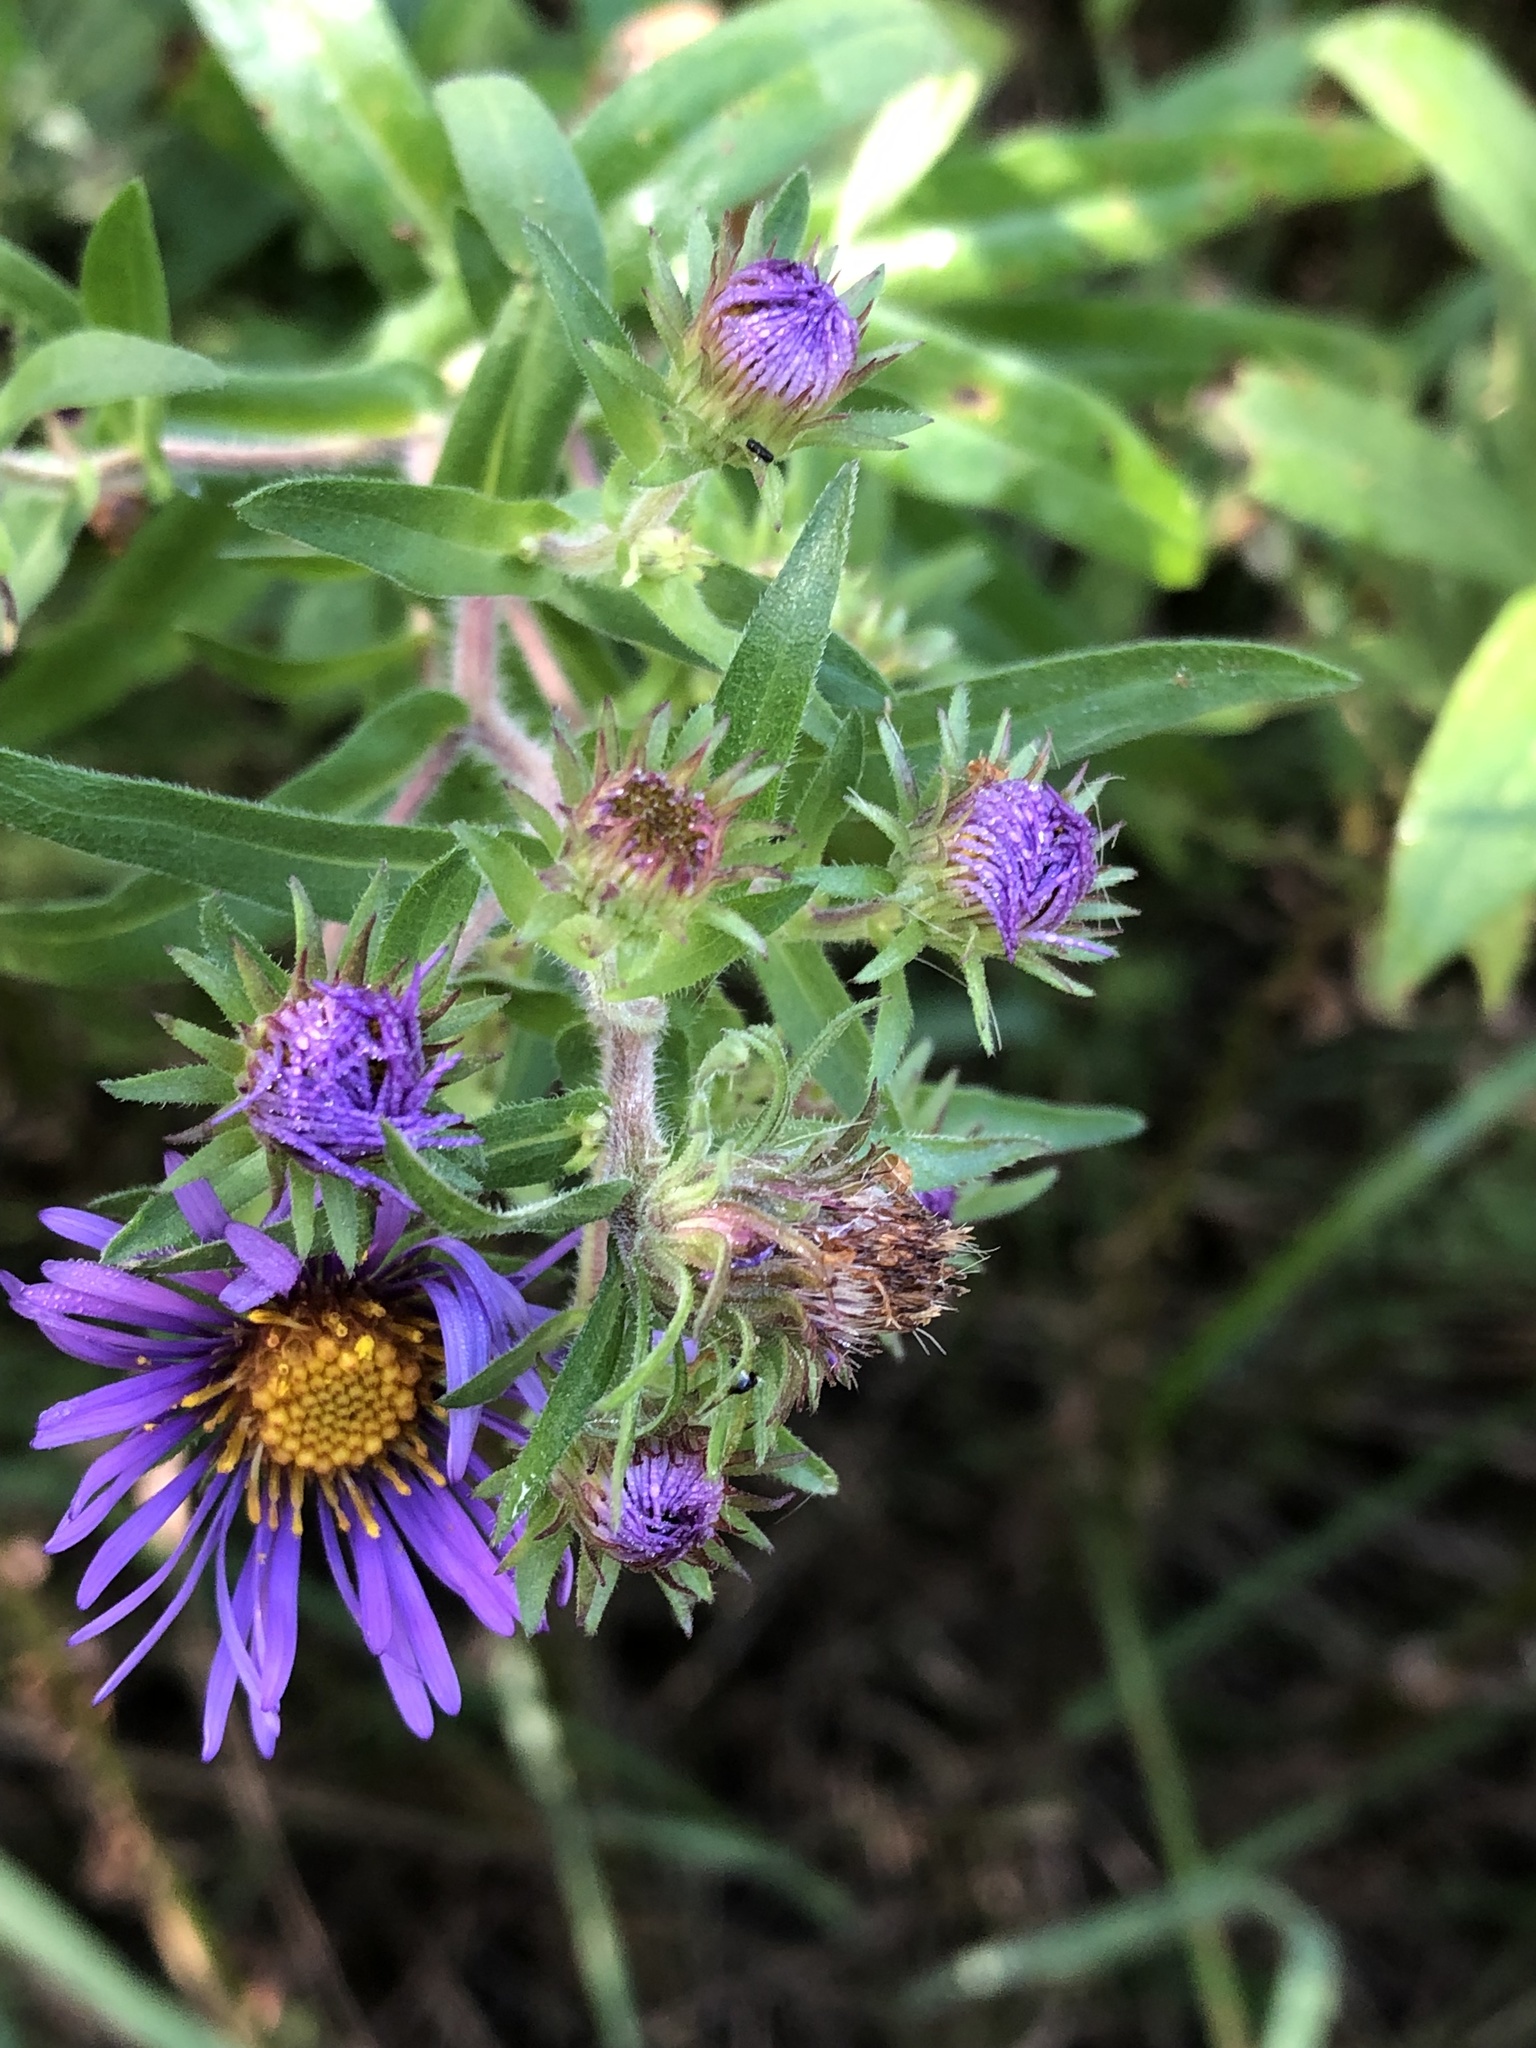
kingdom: Plantae
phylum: Tracheophyta
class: Magnoliopsida
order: Asterales
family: Asteraceae
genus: Symphyotrichum
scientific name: Symphyotrichum novae-angliae
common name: Michaelmas daisy
